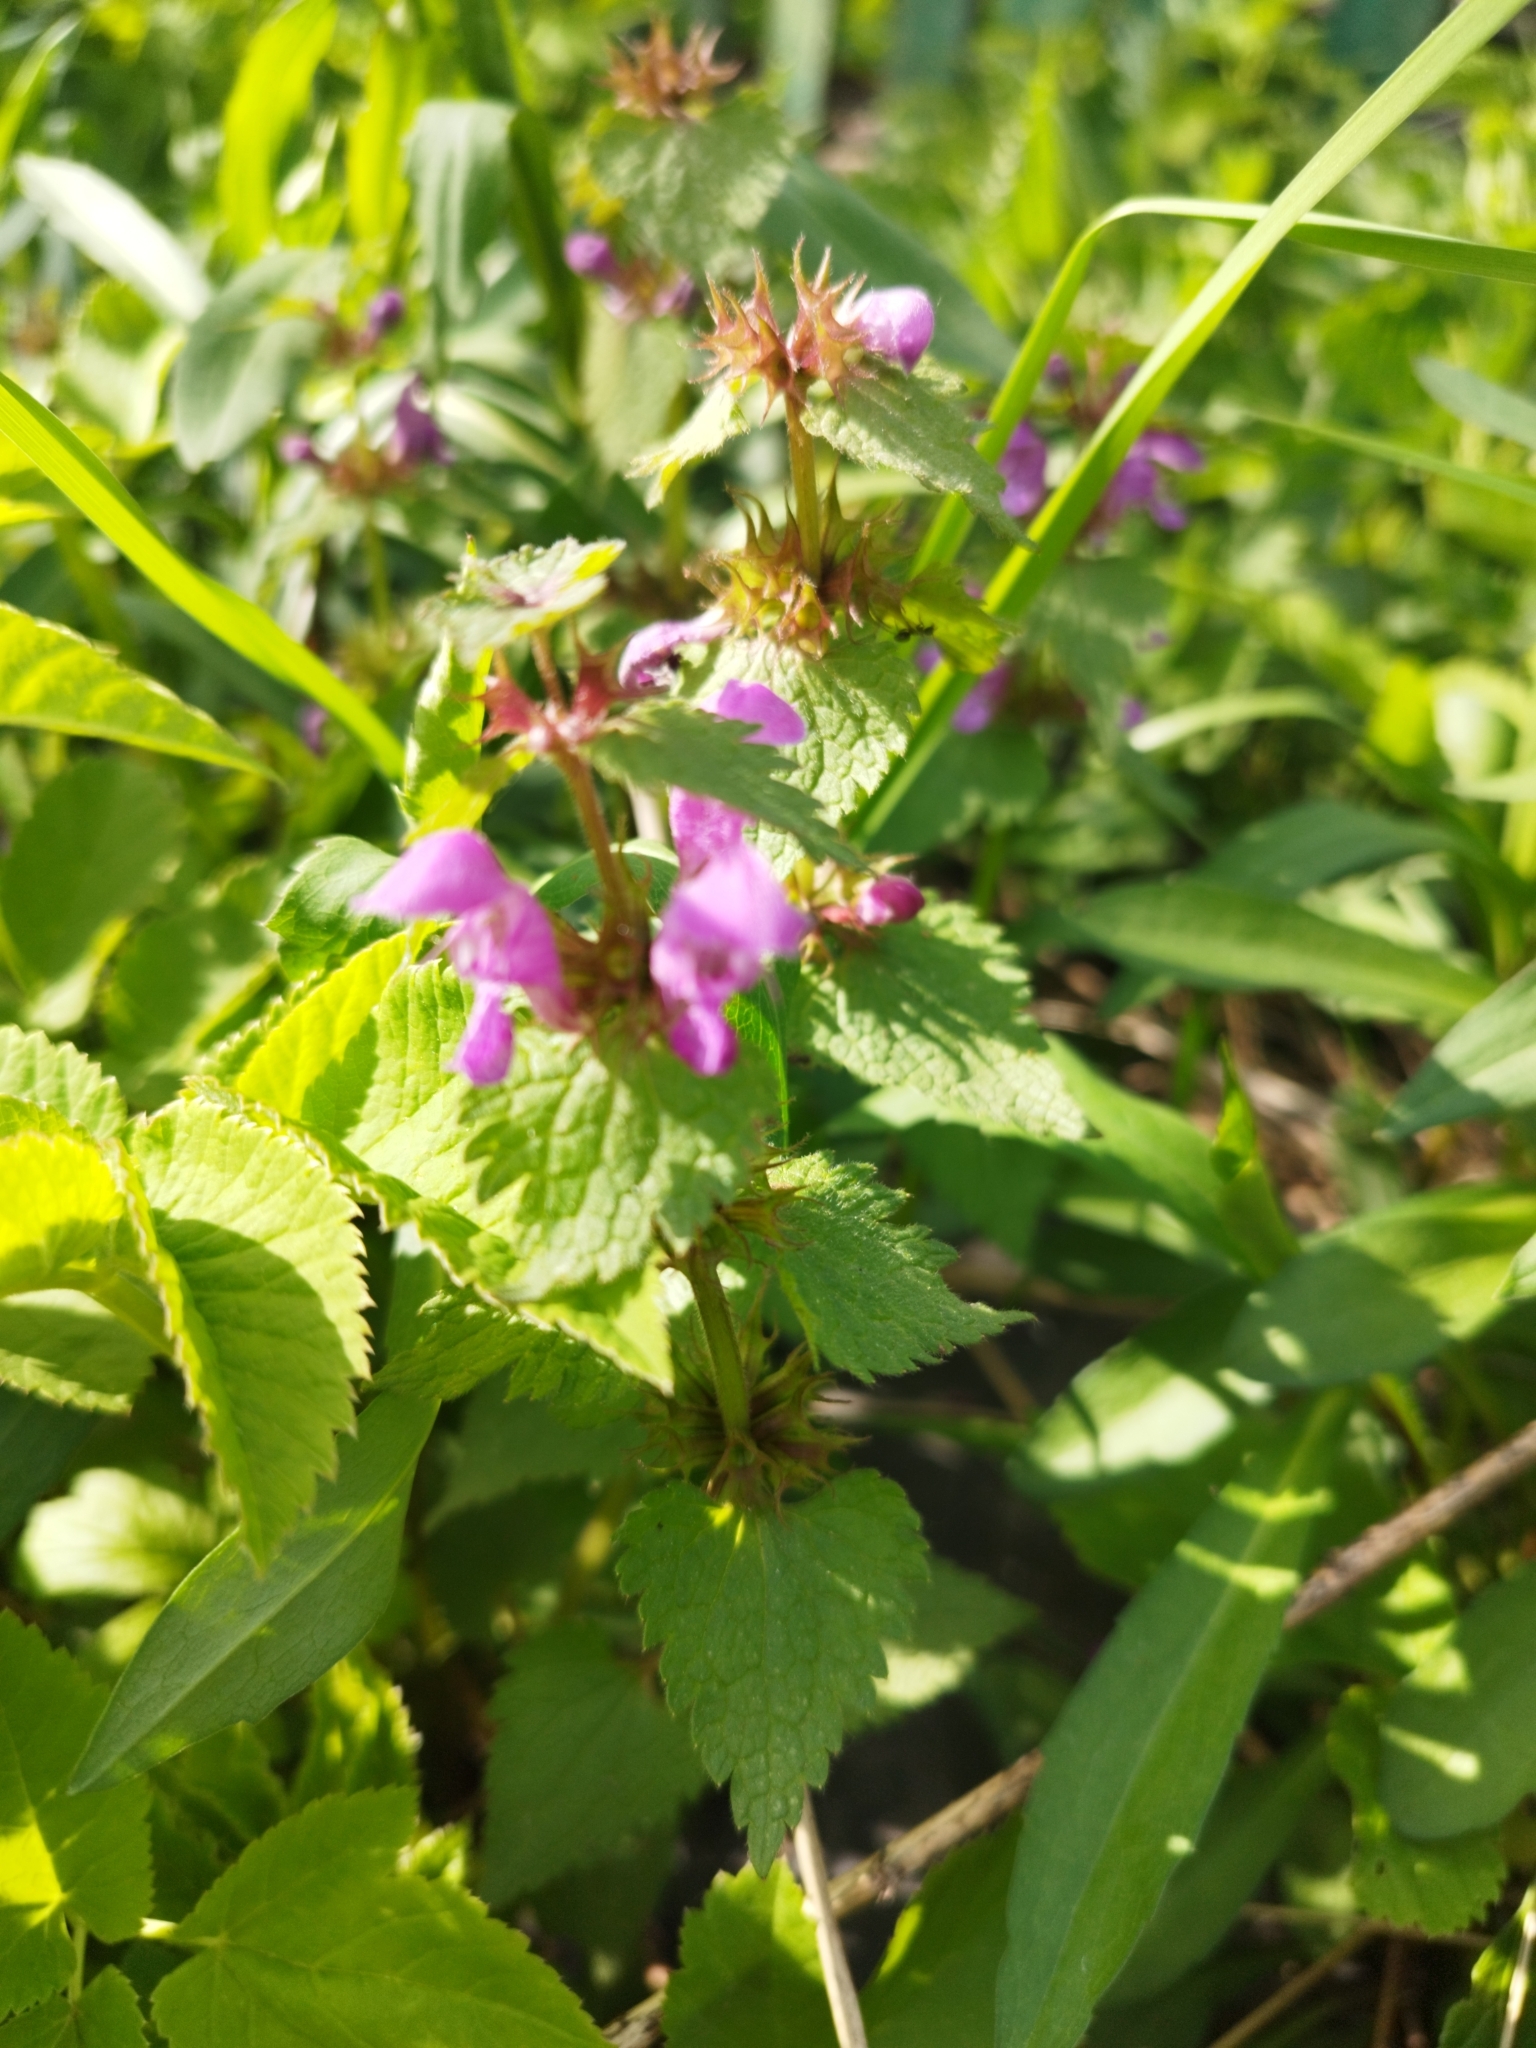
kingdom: Plantae
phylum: Tracheophyta
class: Magnoliopsida
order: Lamiales
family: Lamiaceae
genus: Lamium
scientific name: Lamium maculatum
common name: Spotted dead-nettle
